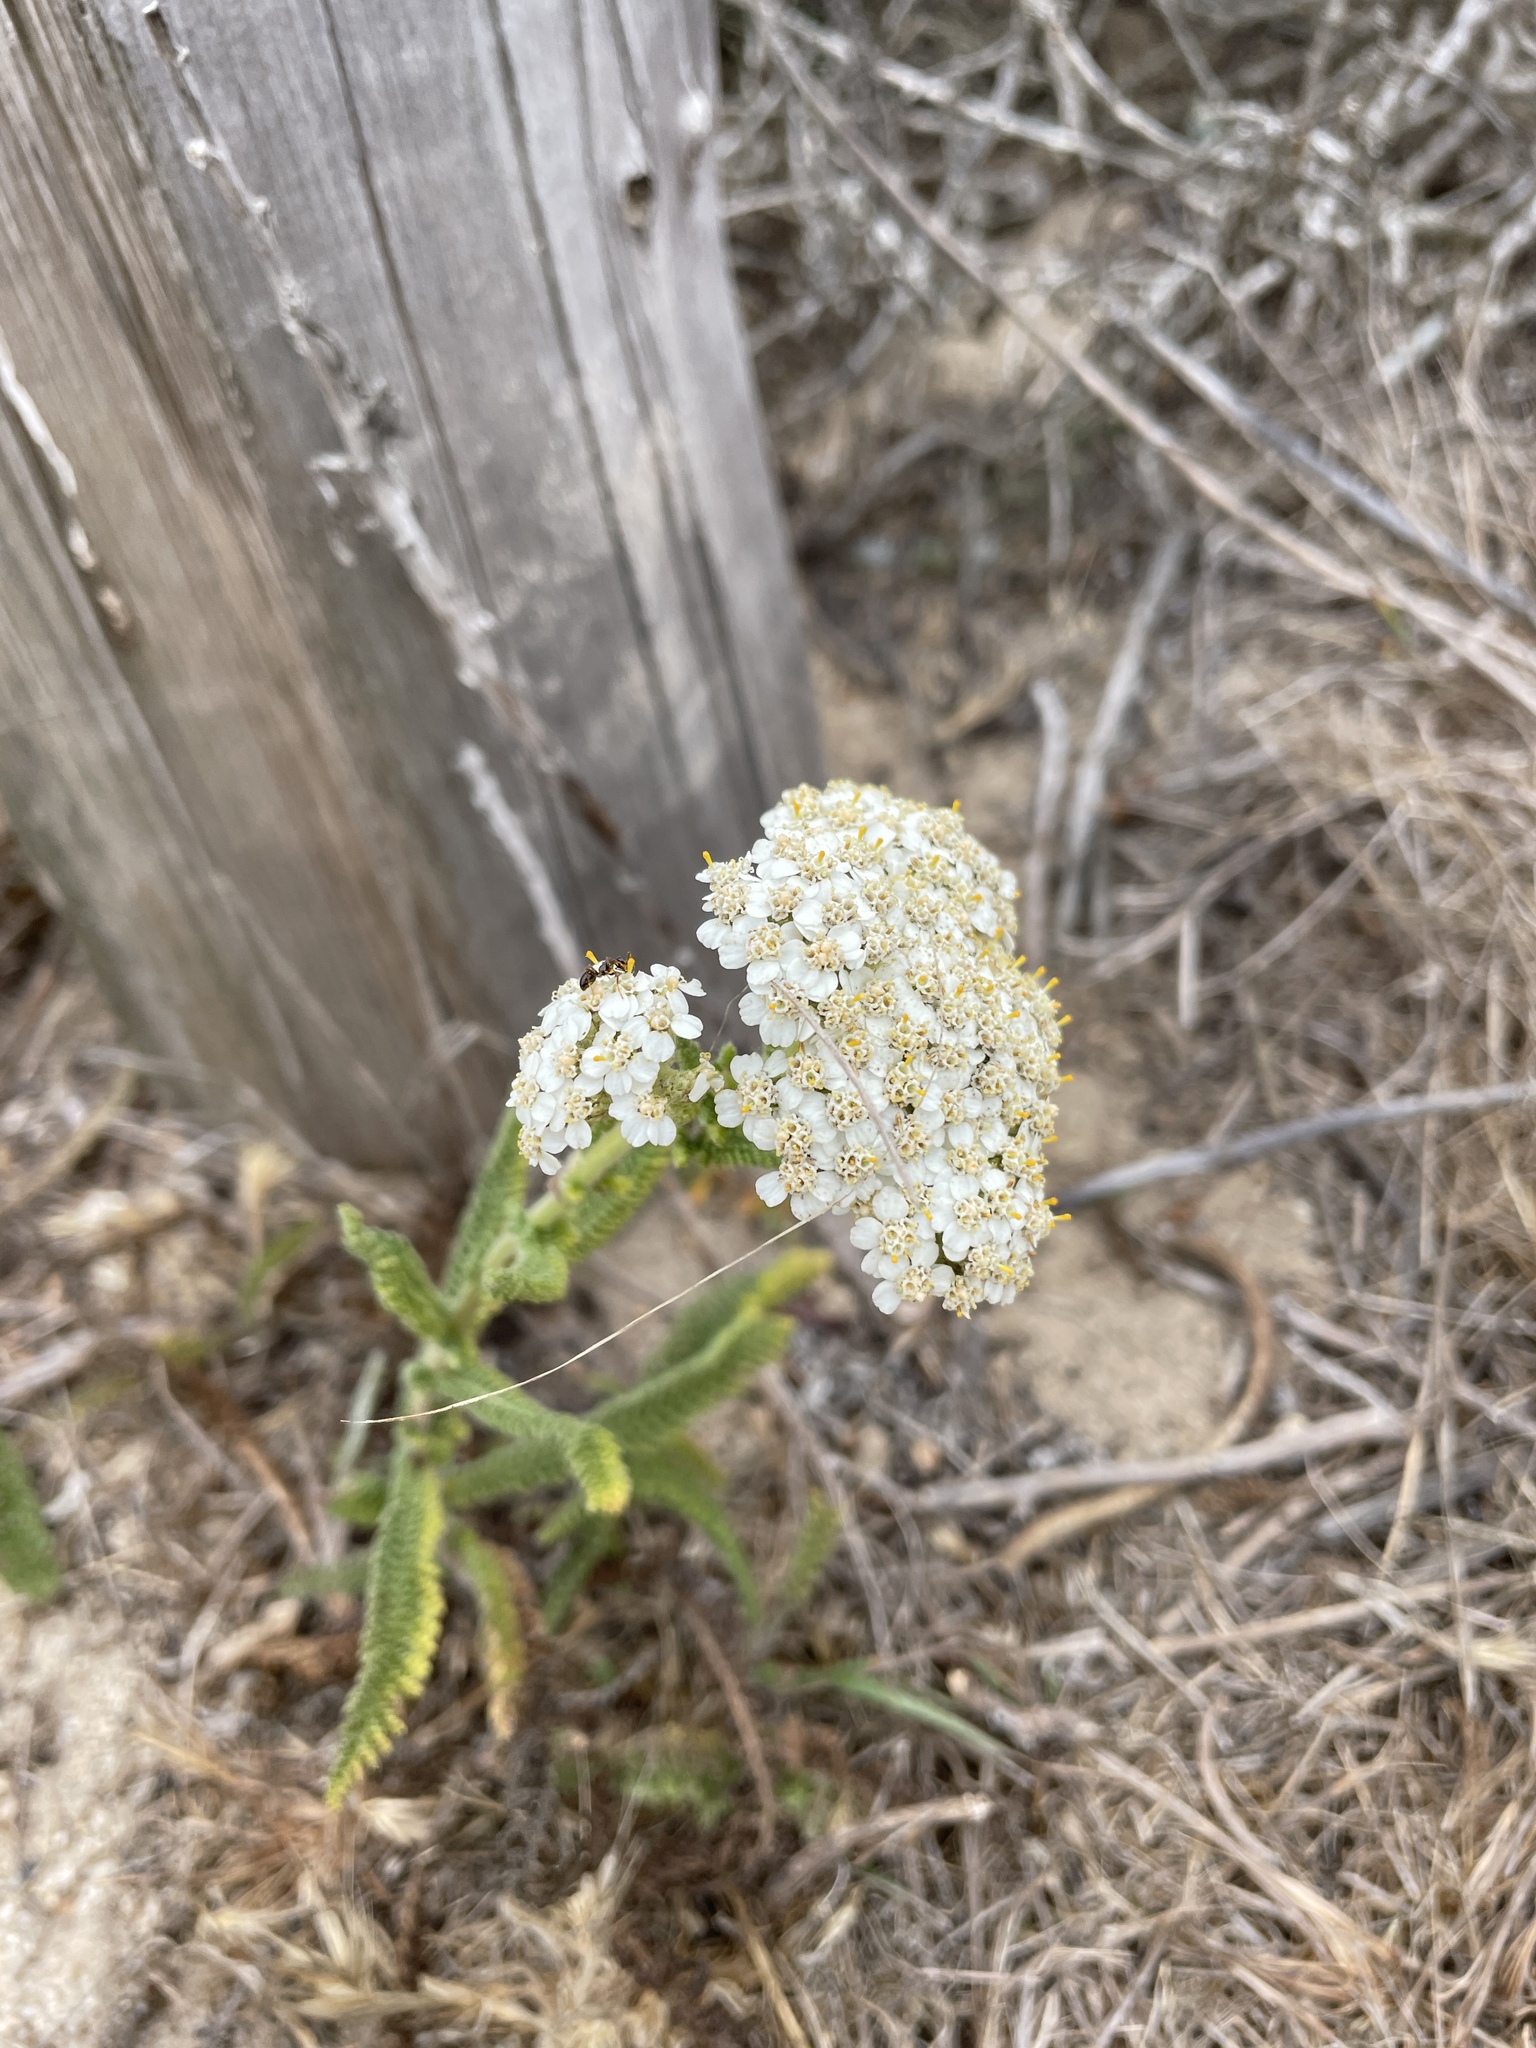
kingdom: Plantae
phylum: Tracheophyta
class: Magnoliopsida
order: Asterales
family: Asteraceae
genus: Achillea
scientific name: Achillea millefolium
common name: Yarrow
